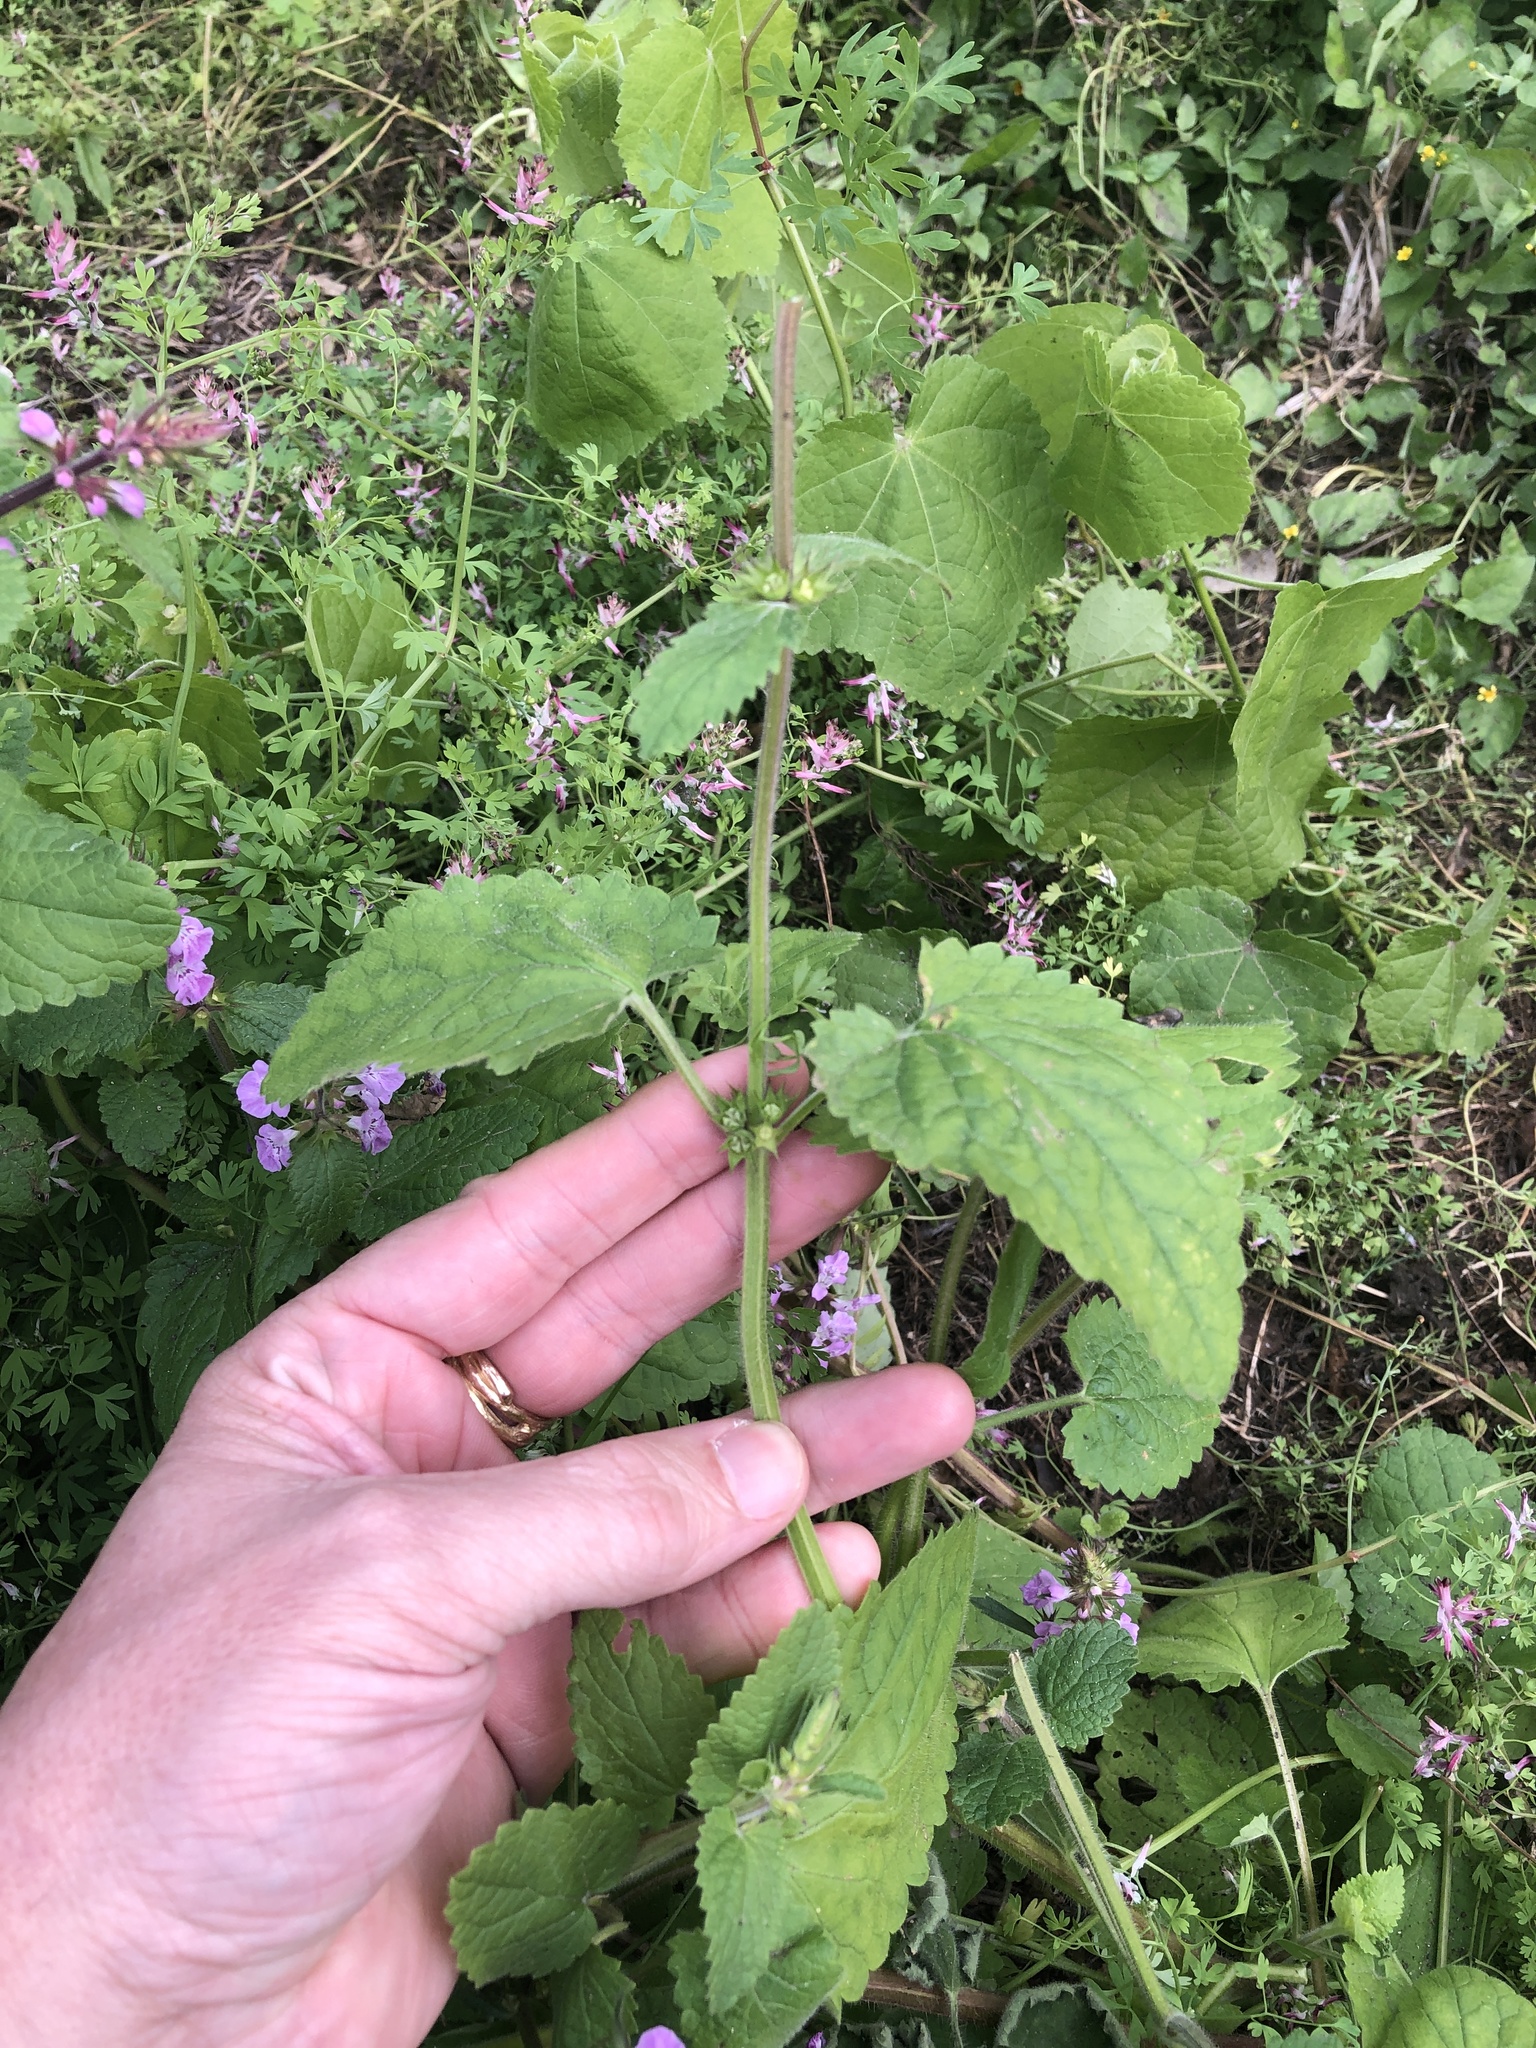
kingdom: Plantae
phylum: Tracheophyta
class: Magnoliopsida
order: Lamiales
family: Lamiaceae
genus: Stachys
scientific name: Stachys drummondii
